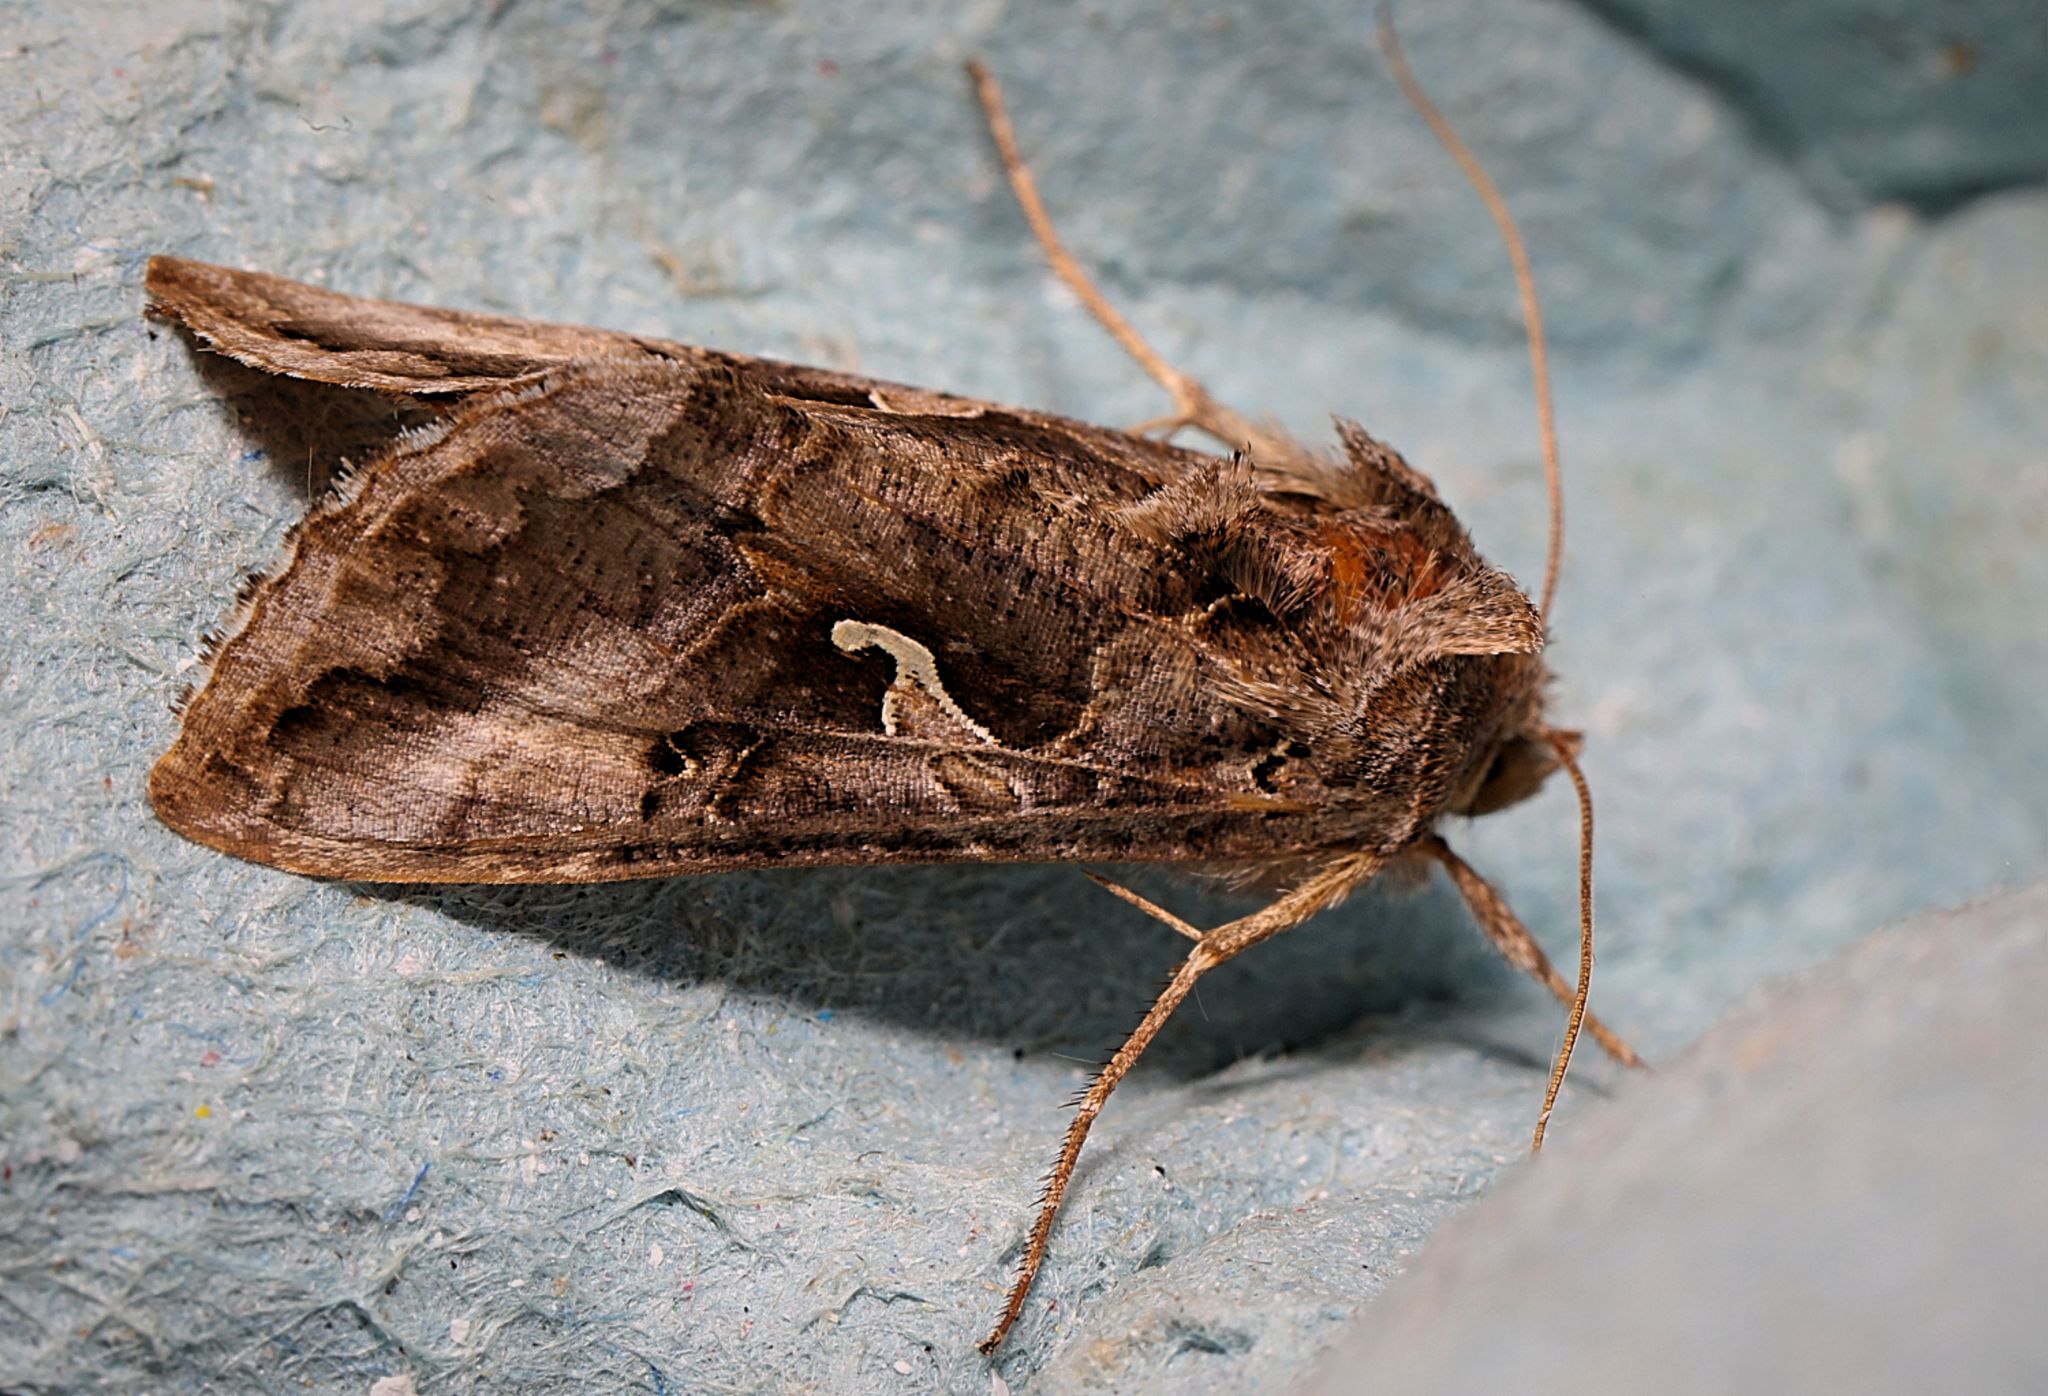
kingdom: Animalia
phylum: Arthropoda
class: Insecta
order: Lepidoptera
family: Noctuidae
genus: Autographa
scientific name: Autographa gamma
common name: Silver y
